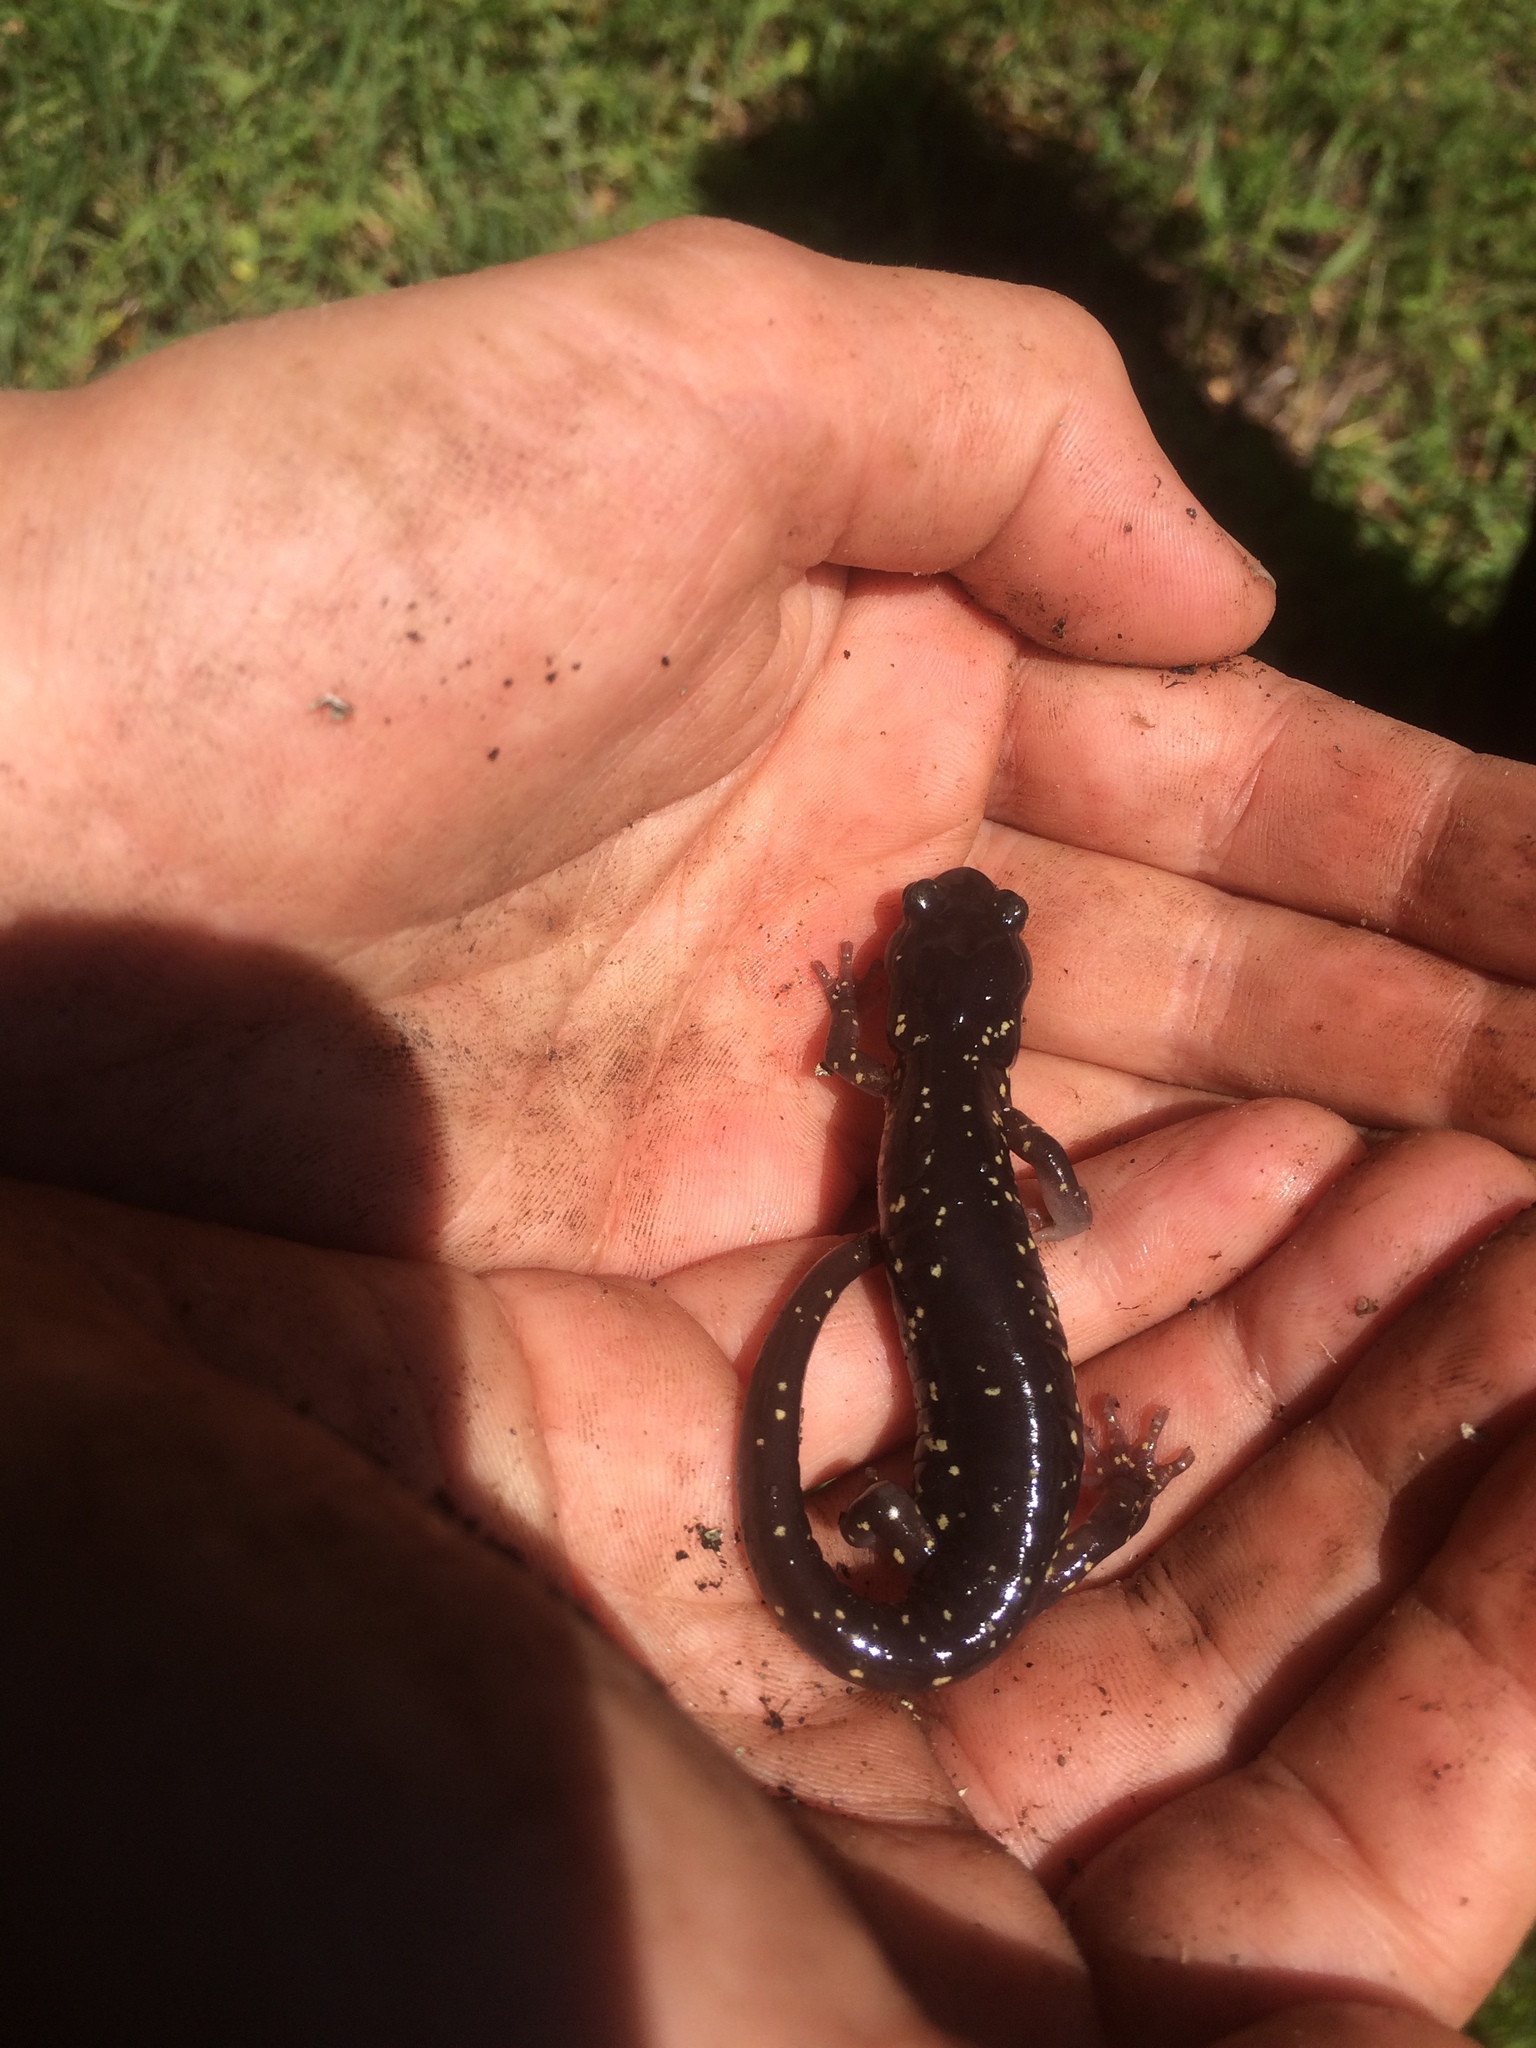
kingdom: Animalia
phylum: Chordata
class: Amphibia
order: Caudata
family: Plethodontidae
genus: Aneides
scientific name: Aneides lugubris
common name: Arboreal salamander
